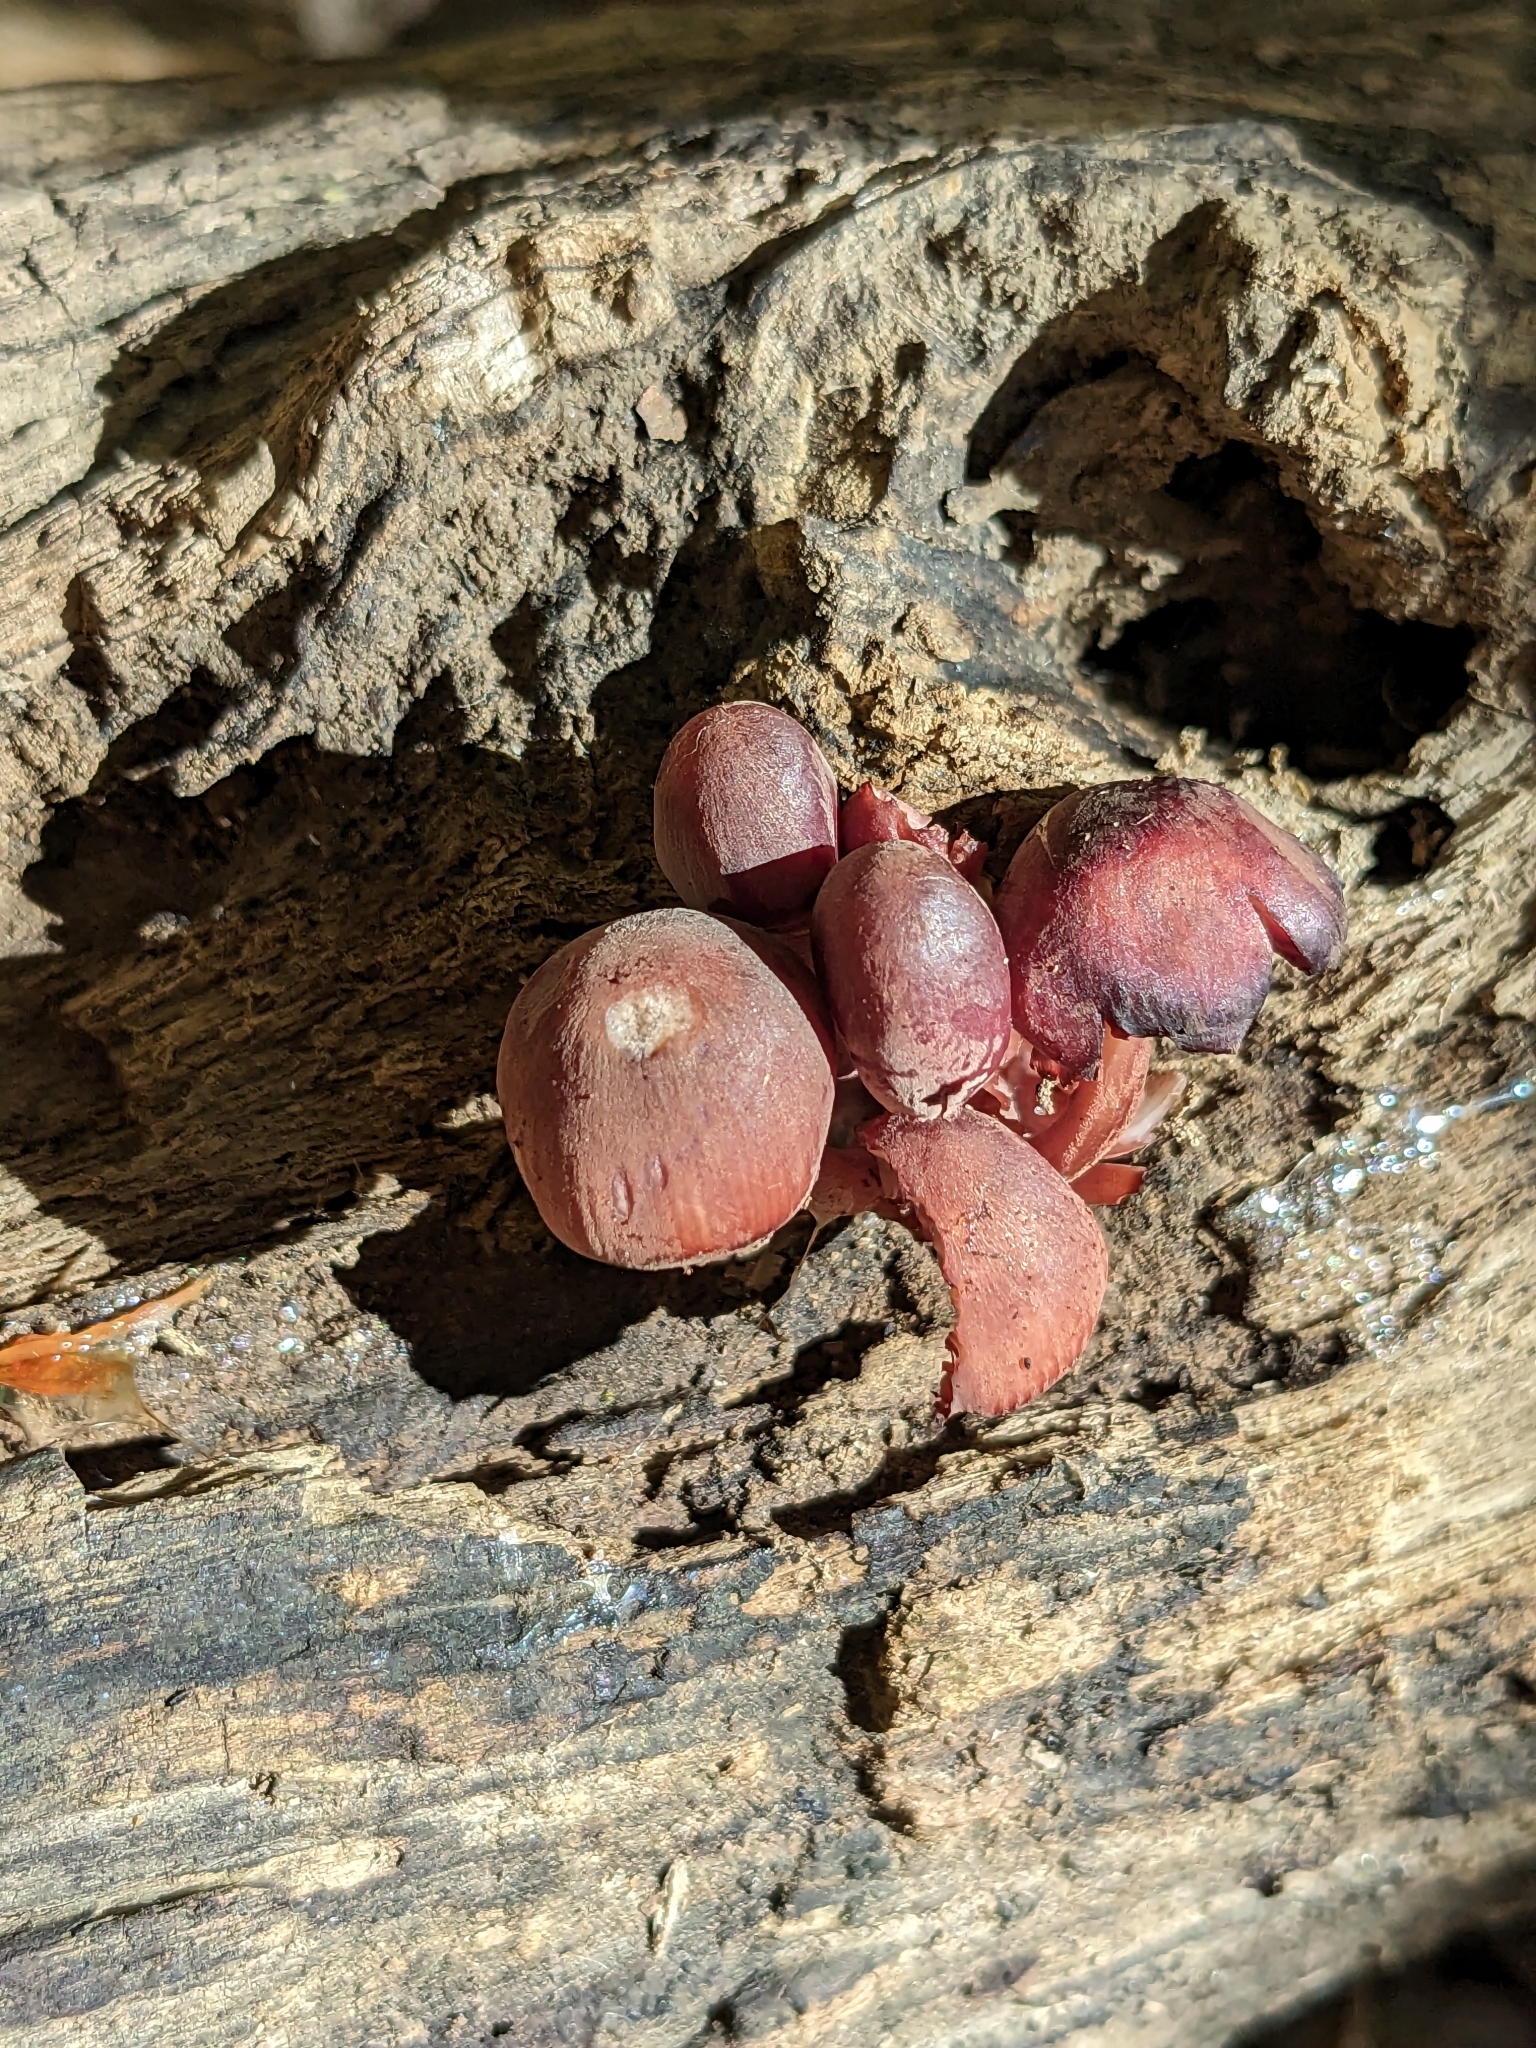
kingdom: Fungi
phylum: Basidiomycota
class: Agaricomycetes
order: Agaricales
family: Mycenaceae
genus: Mycena
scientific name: Mycena haematopus
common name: Burgundydrop bonnet
